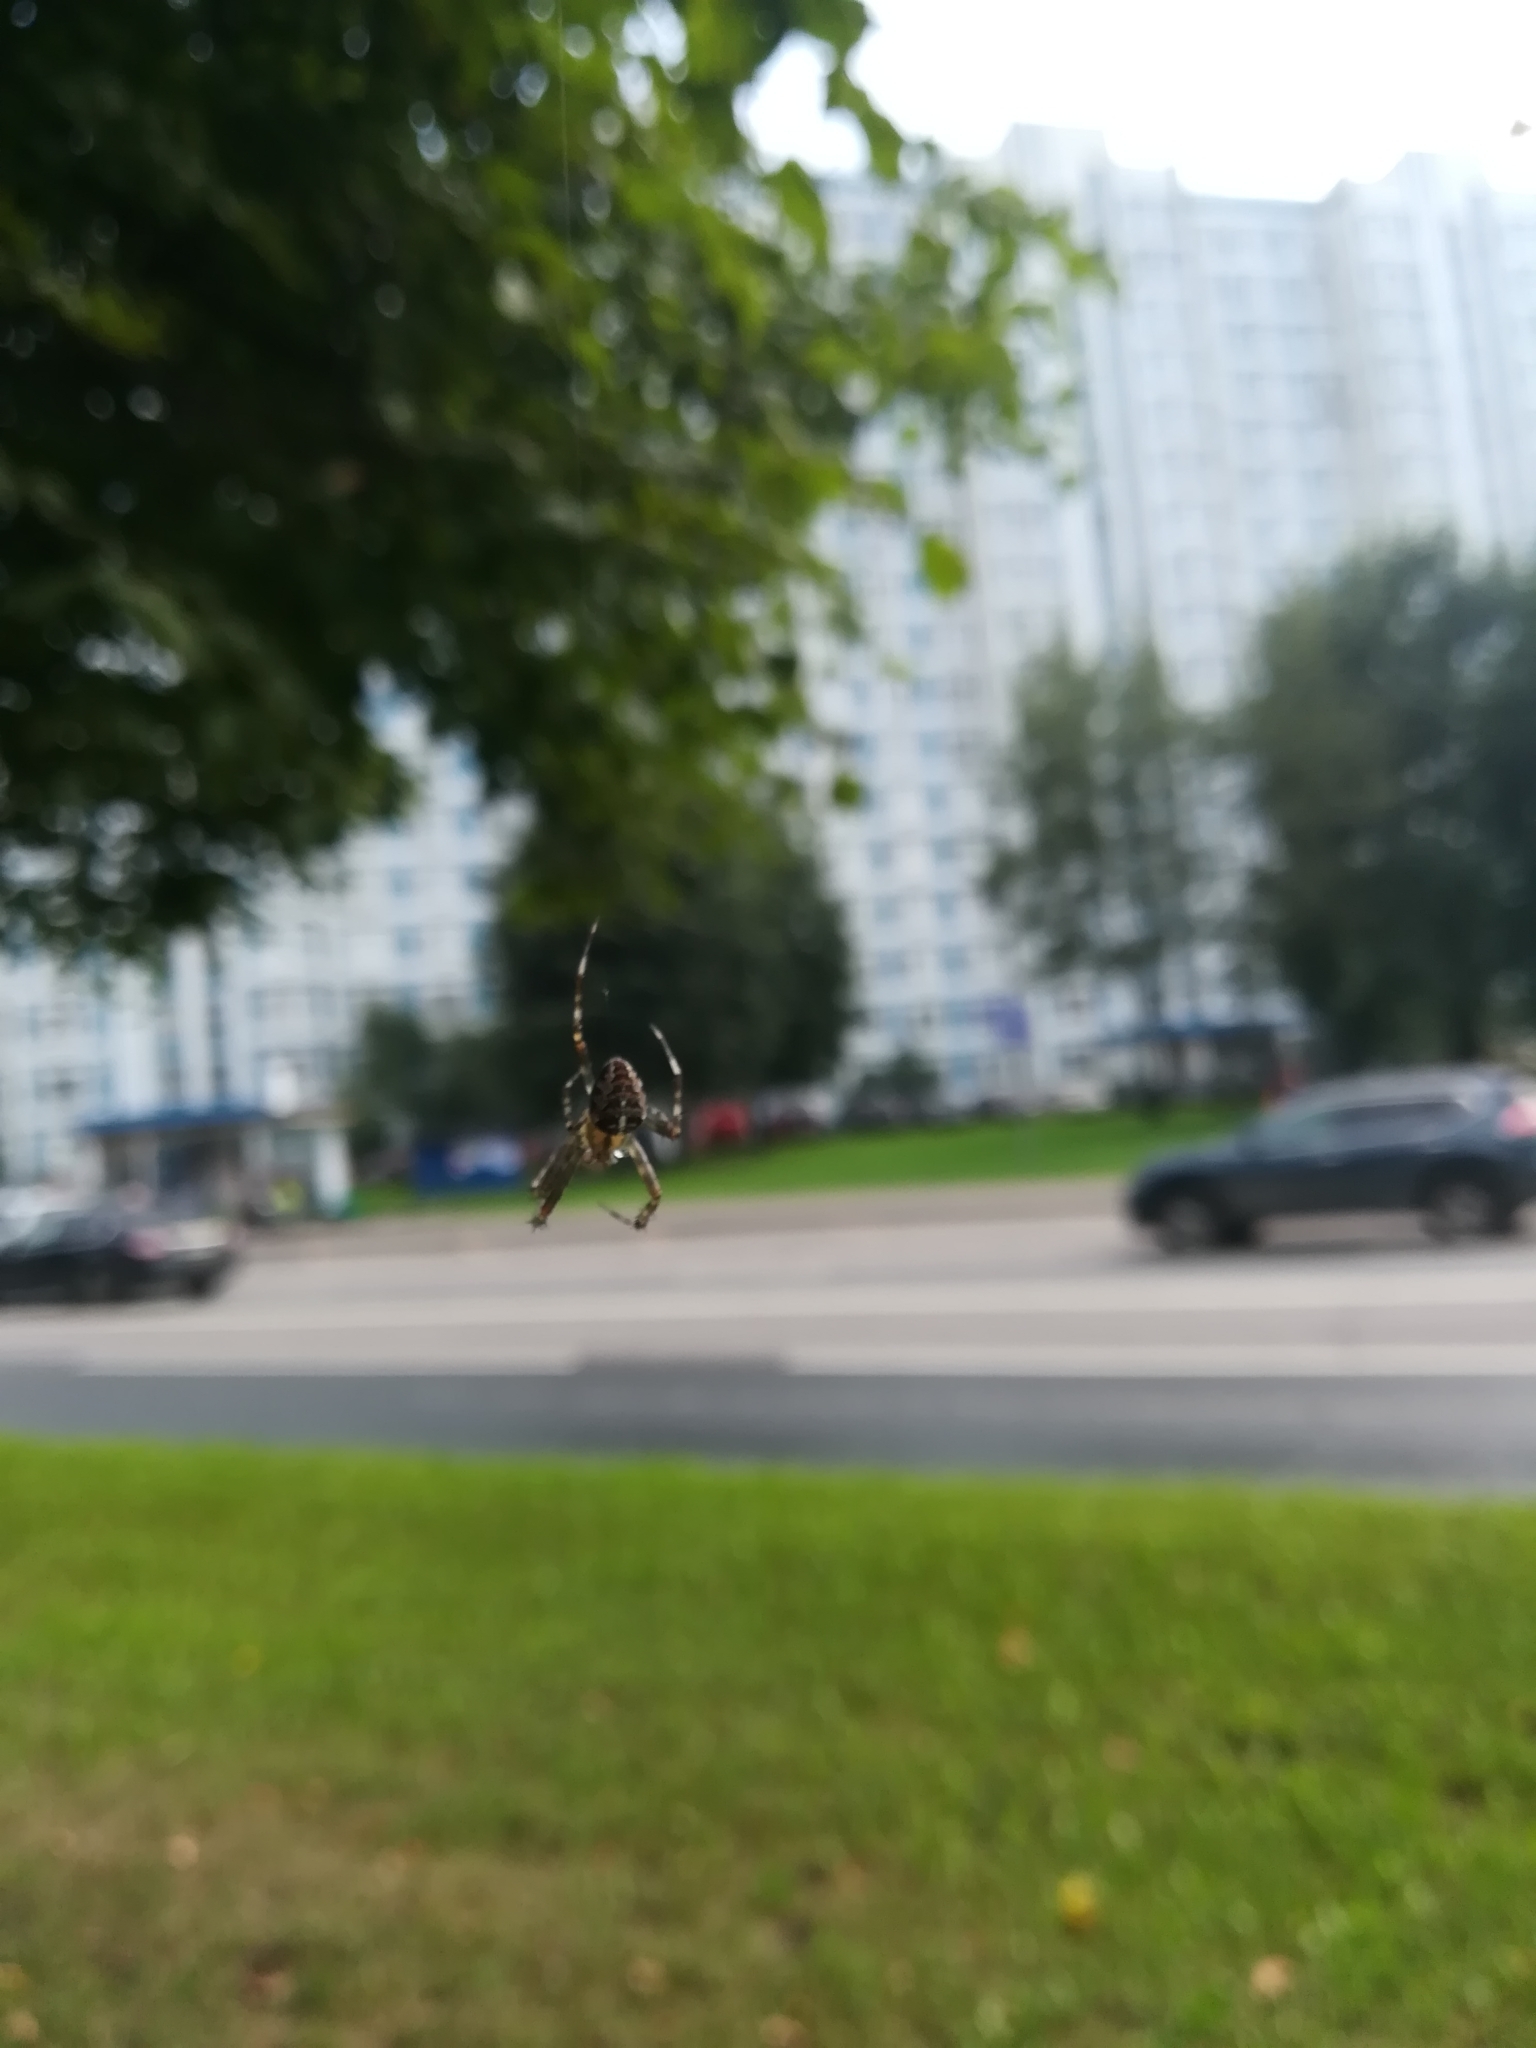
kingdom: Animalia
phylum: Arthropoda
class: Arachnida
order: Araneae
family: Araneidae
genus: Araneus
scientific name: Araneus diadematus
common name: Cross orbweaver
